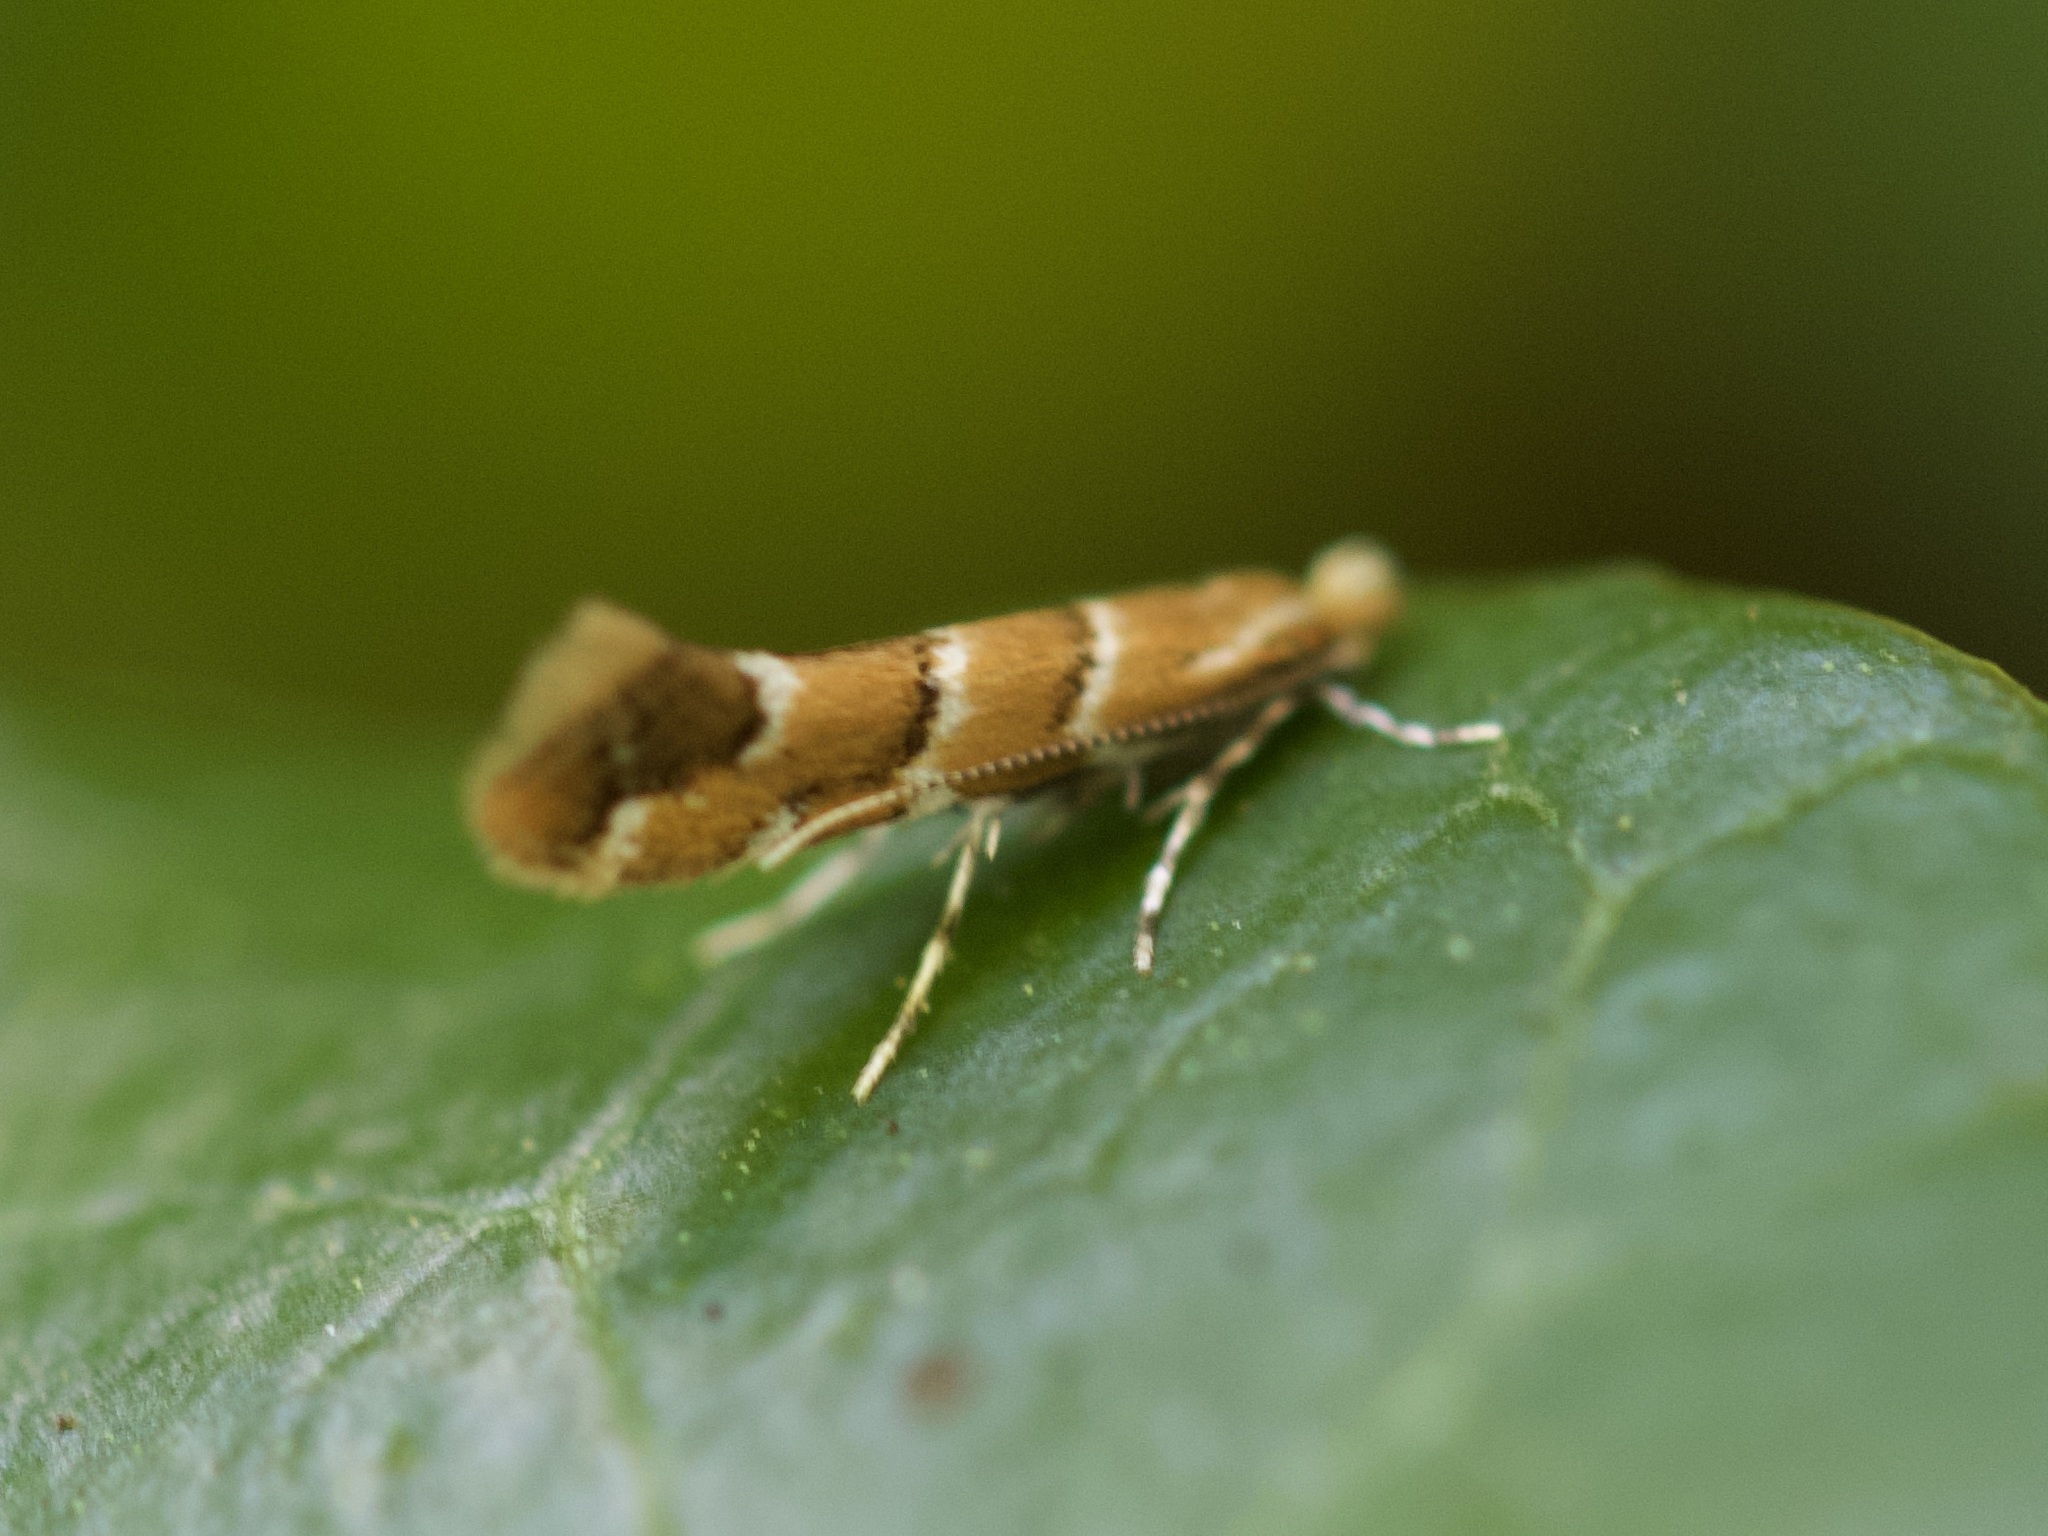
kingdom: Animalia
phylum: Arthropoda
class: Insecta
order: Lepidoptera
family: Gracillariidae
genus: Cameraria
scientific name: Cameraria ohridella
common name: Horse-chestnut leaf-miner
